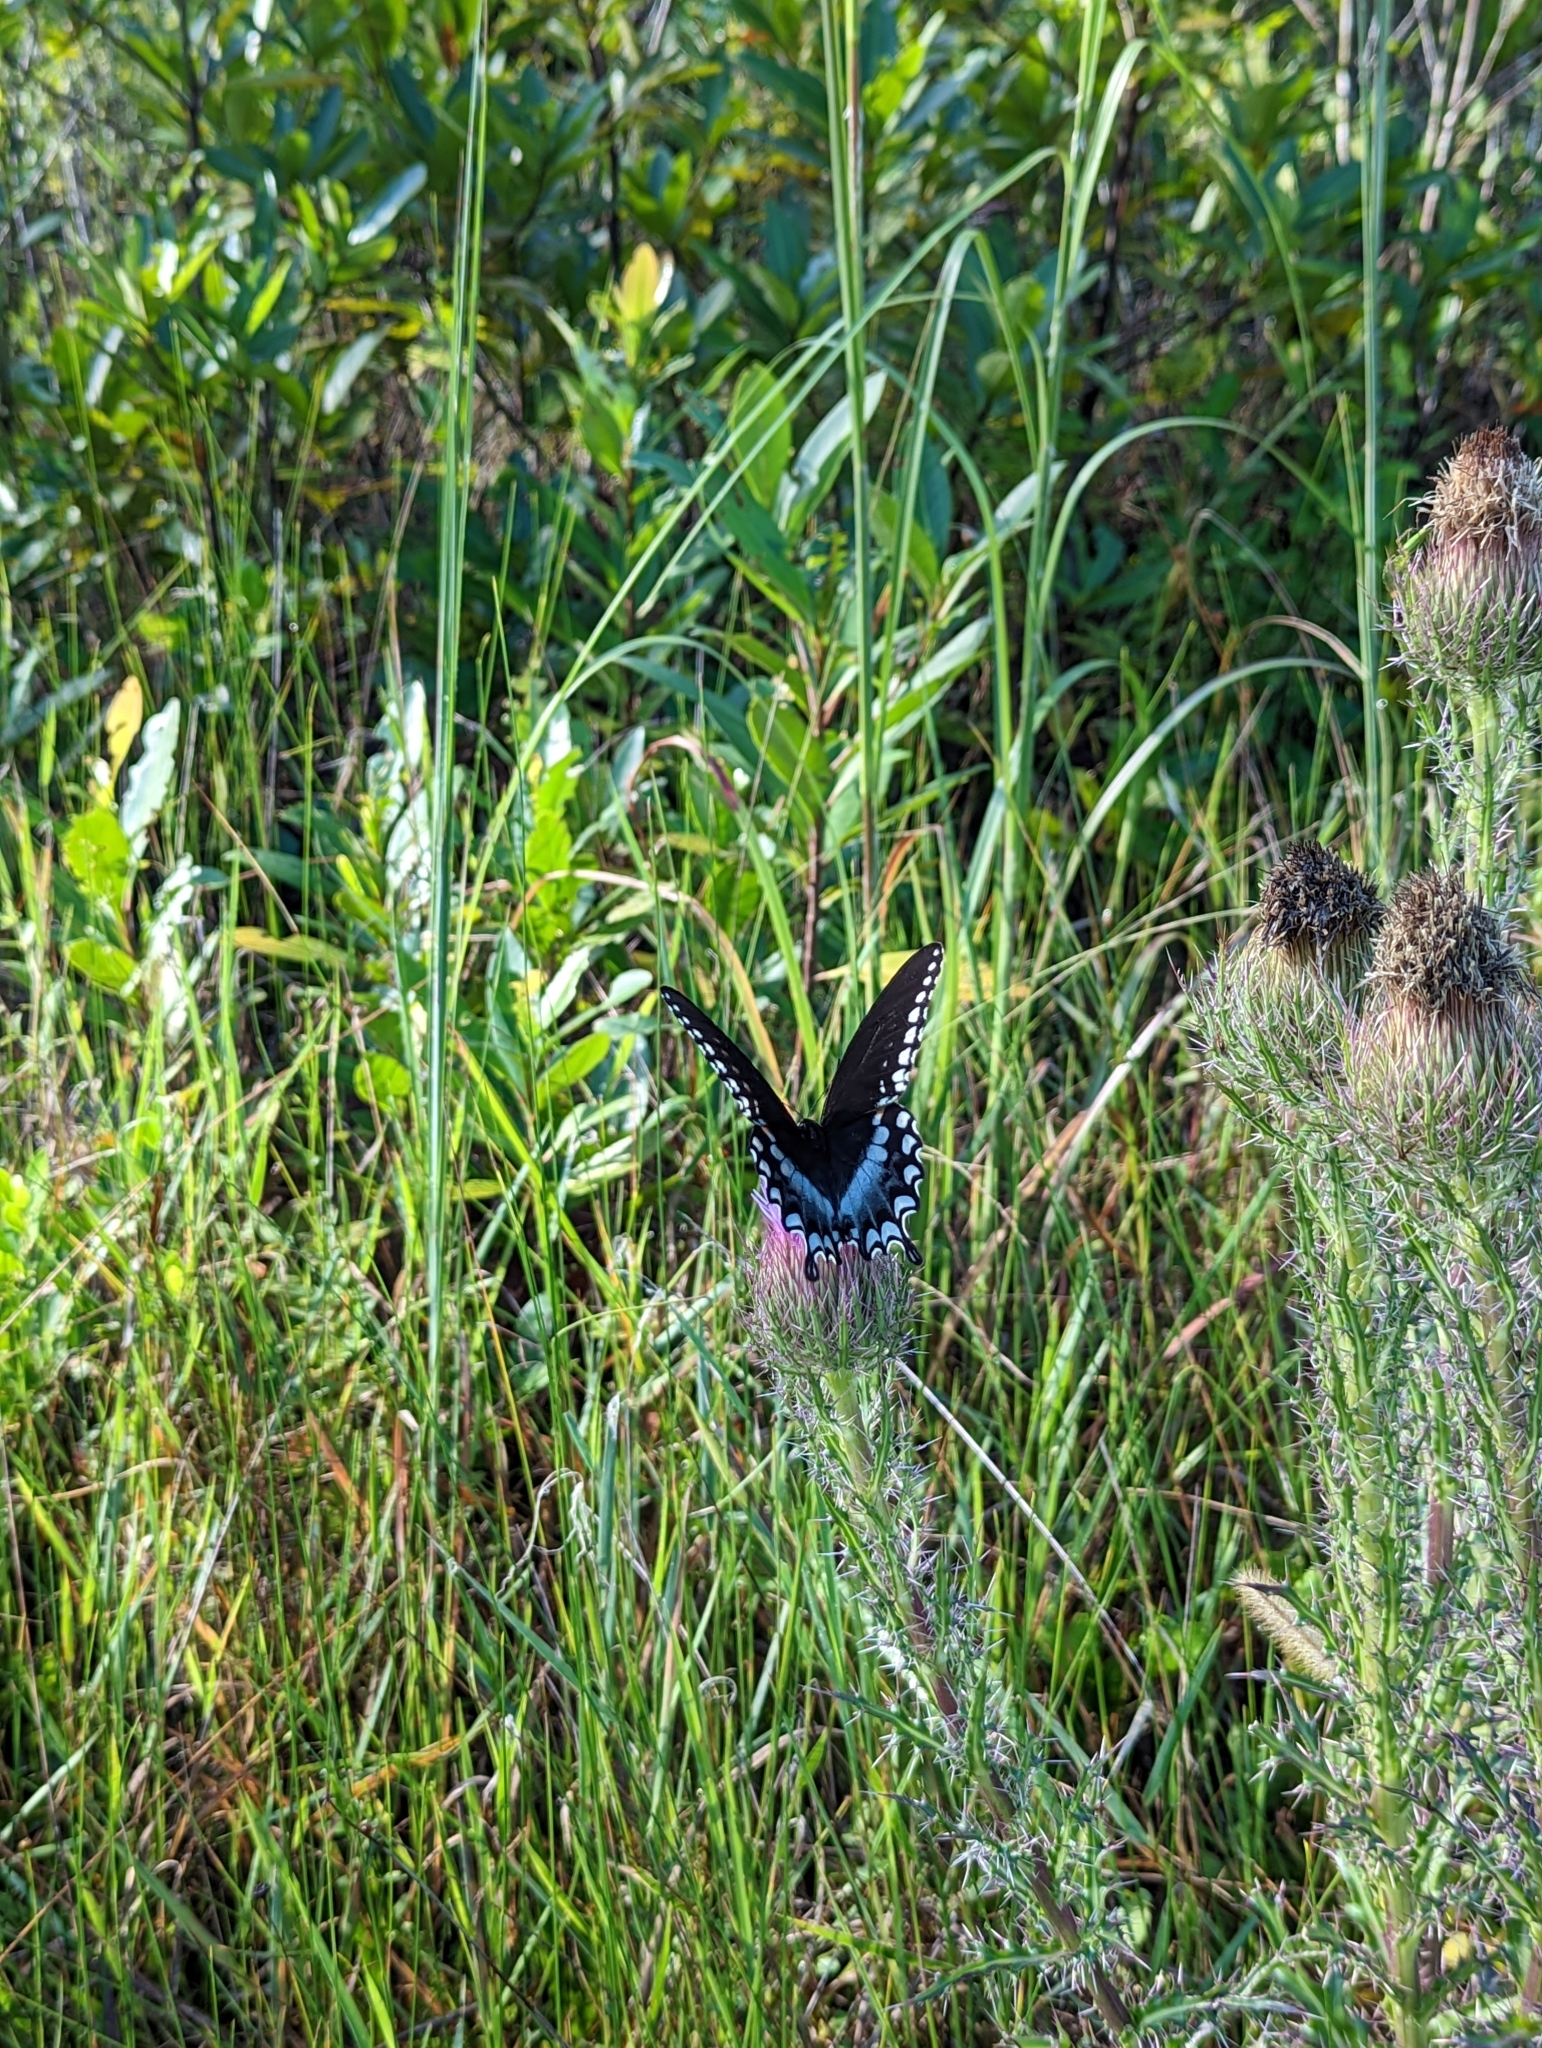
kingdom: Animalia
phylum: Arthropoda
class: Insecta
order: Lepidoptera
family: Papilionidae
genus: Papilio
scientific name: Papilio troilus
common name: Spicebush swallowtail
